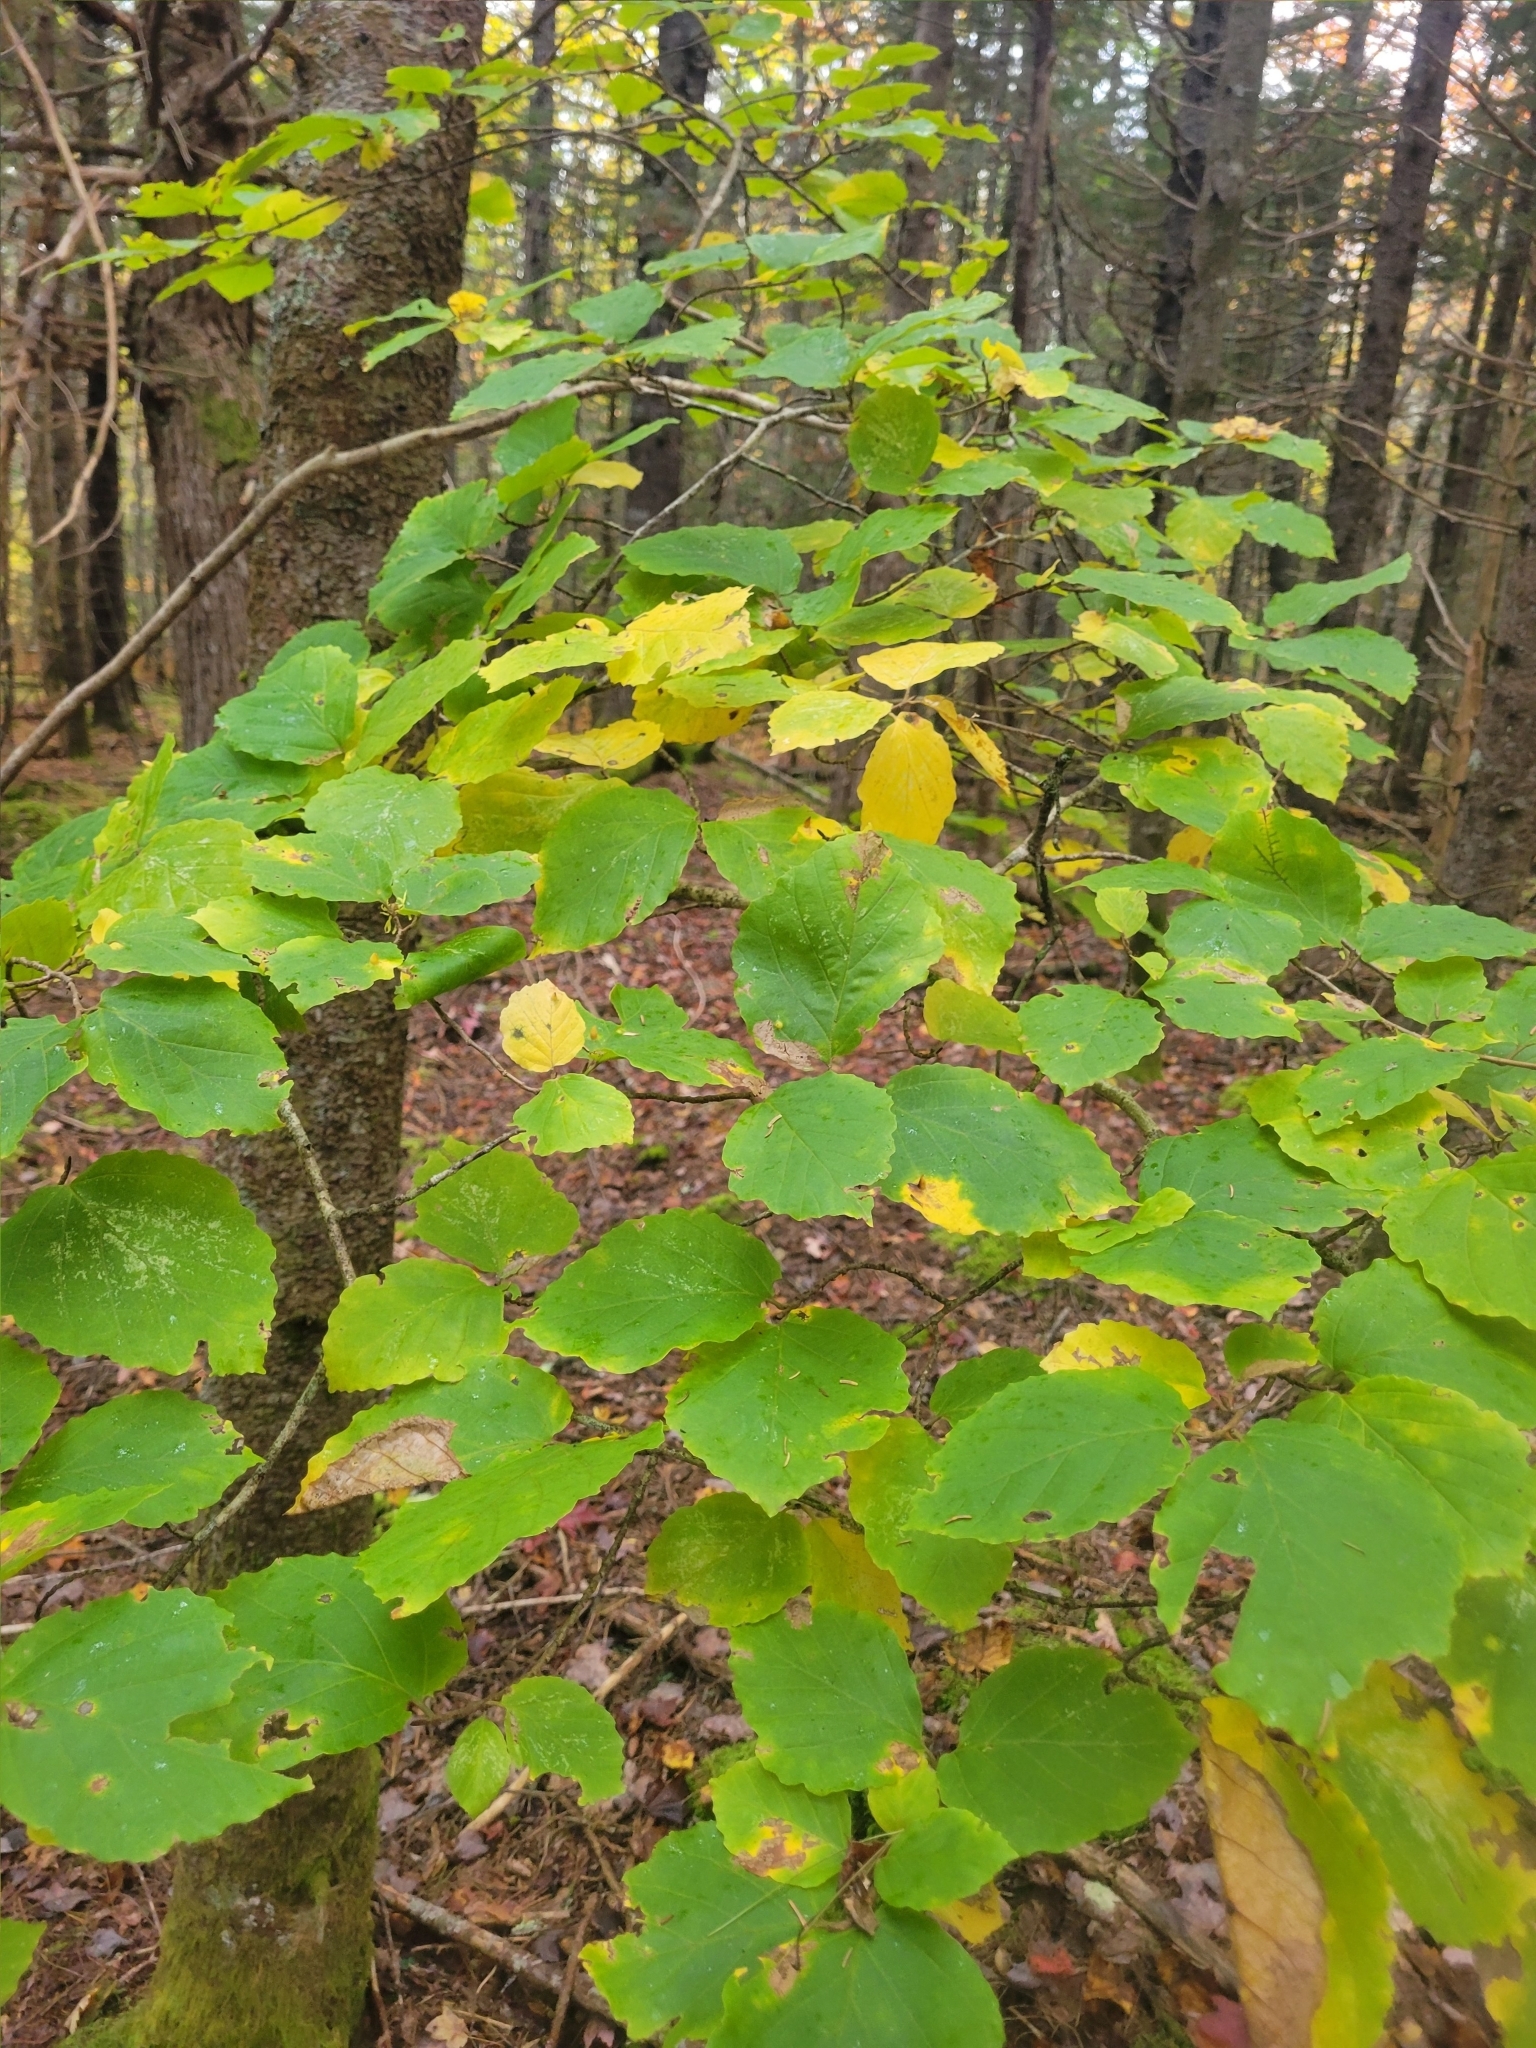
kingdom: Plantae
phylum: Tracheophyta
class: Magnoliopsida
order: Saxifragales
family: Hamamelidaceae
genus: Hamamelis
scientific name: Hamamelis virginiana
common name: Witch-hazel
